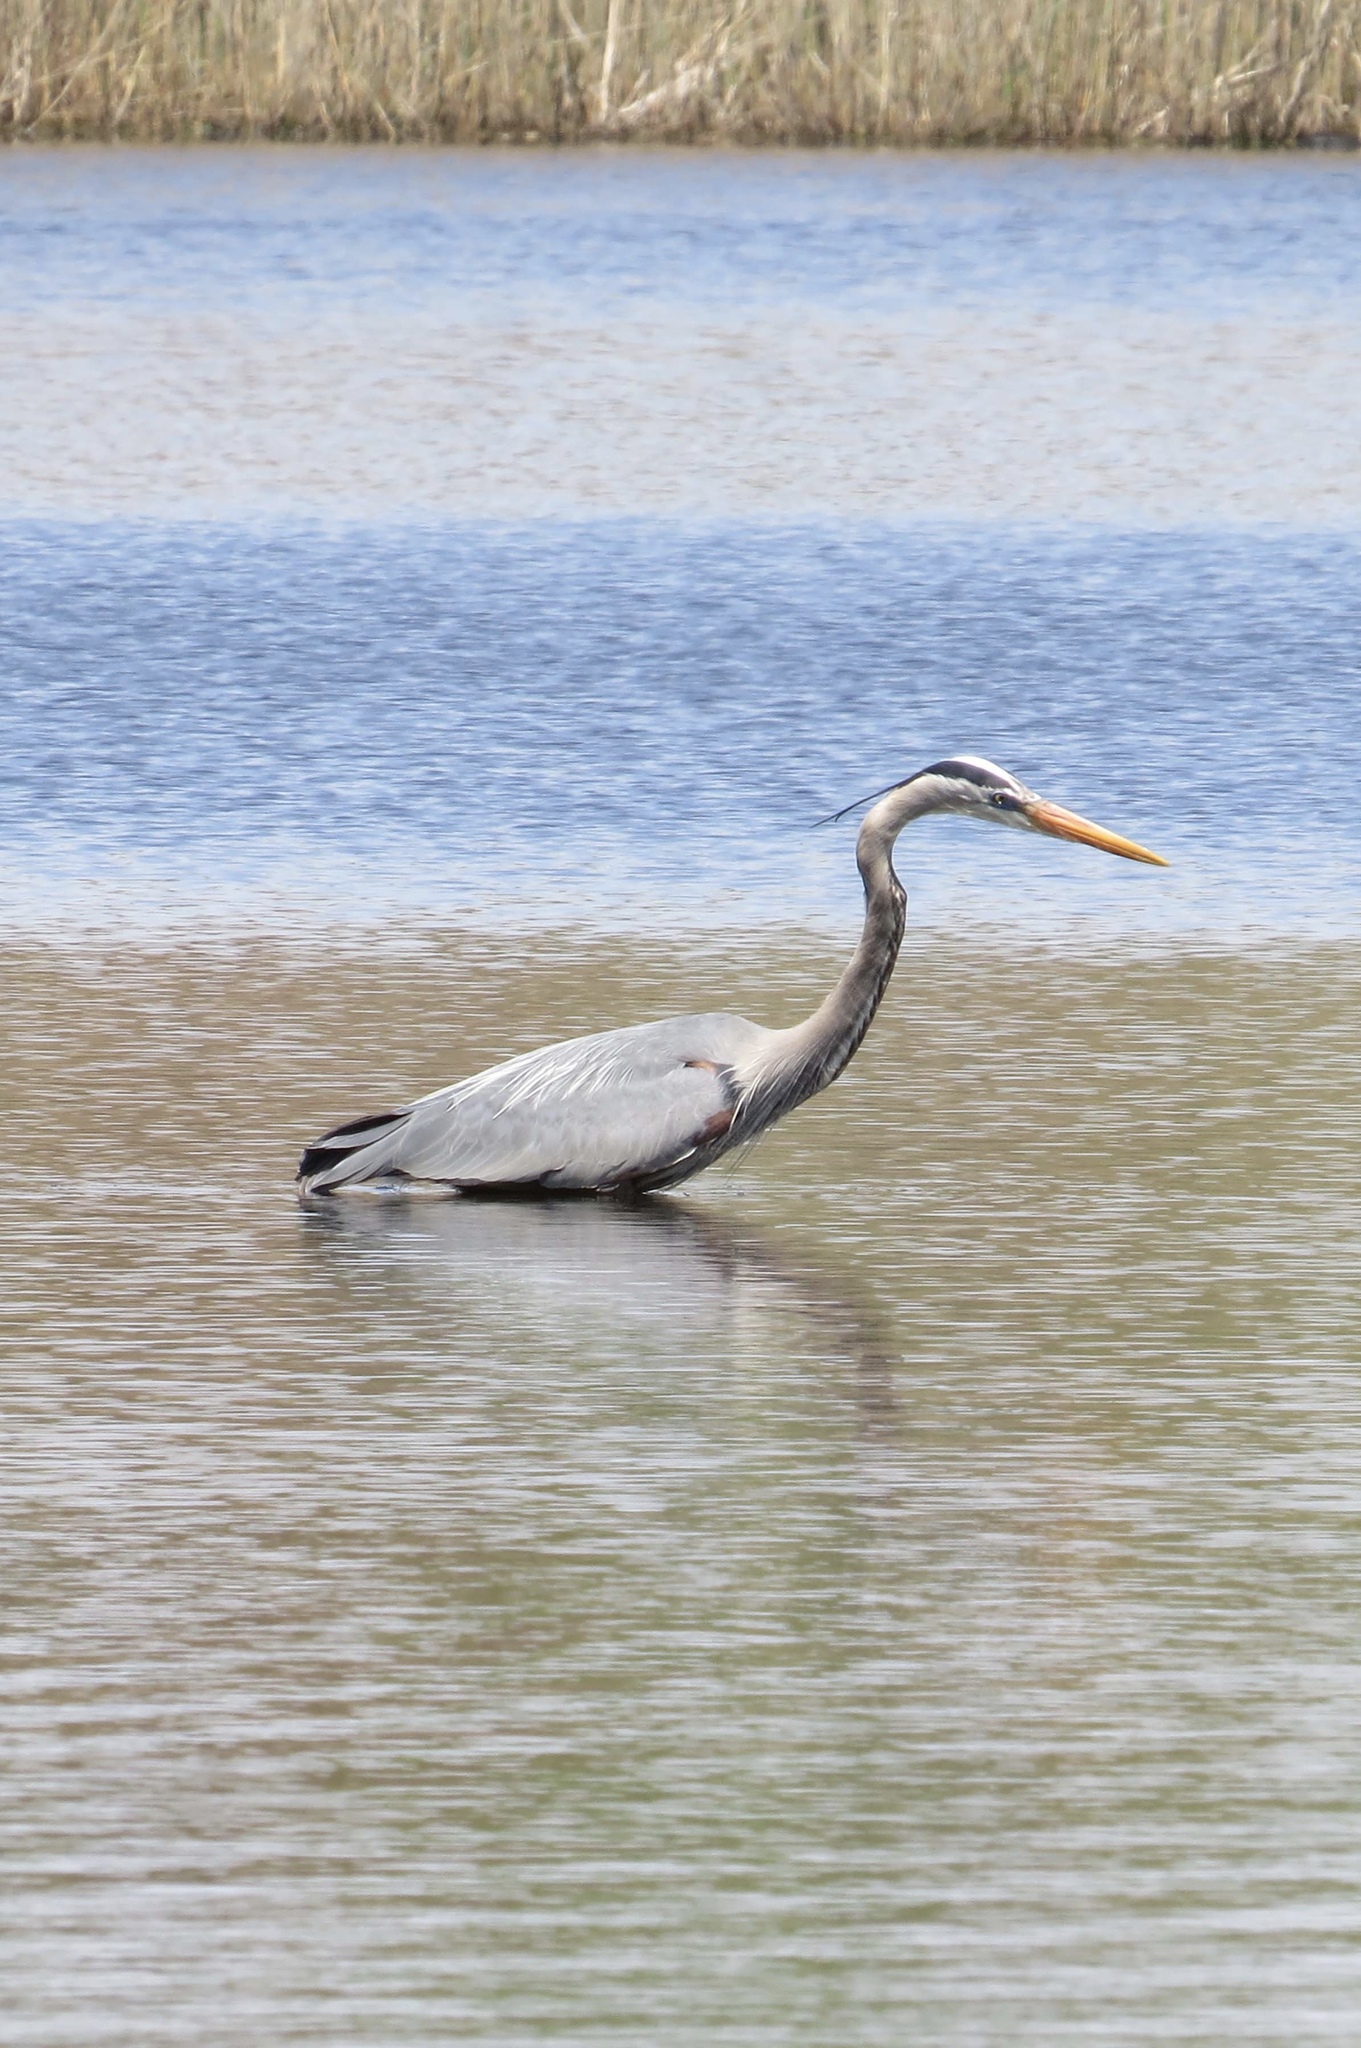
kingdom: Animalia
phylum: Chordata
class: Aves
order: Pelecaniformes
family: Ardeidae
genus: Ardea
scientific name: Ardea herodias
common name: Great blue heron
